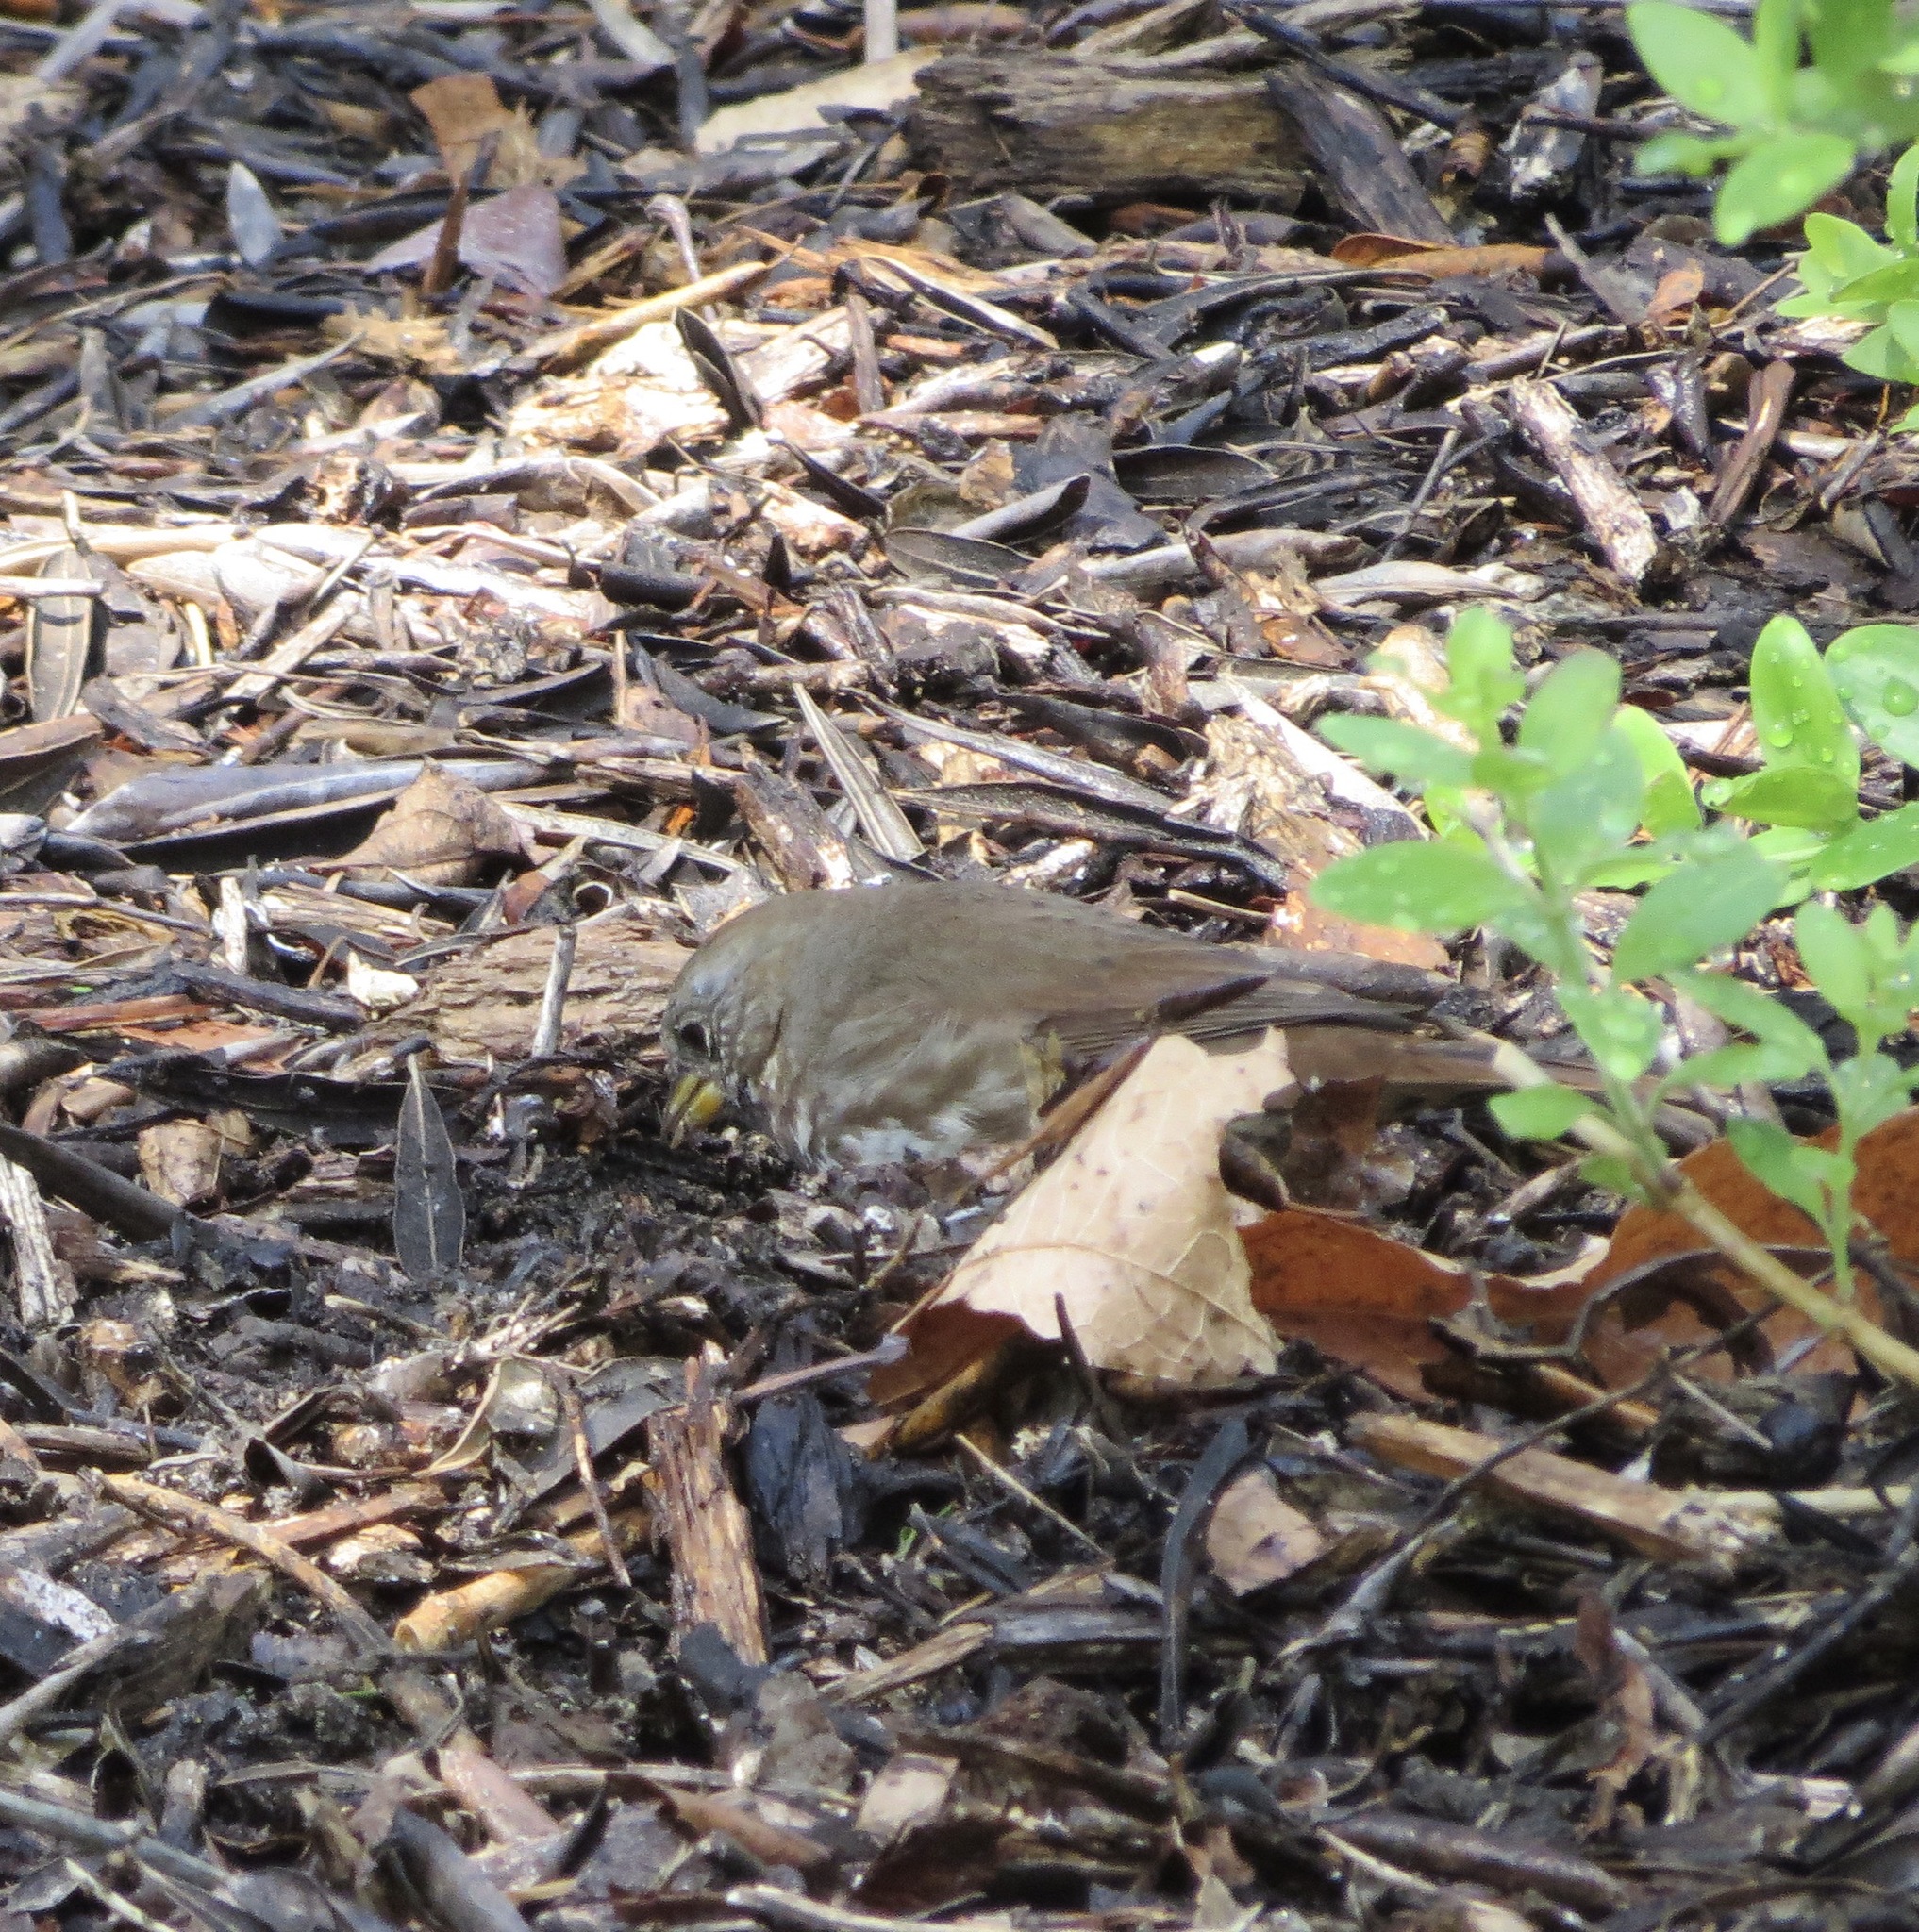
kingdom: Animalia
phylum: Chordata
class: Aves
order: Passeriformes
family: Passerellidae
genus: Passerella
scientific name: Passerella iliaca
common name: Fox sparrow
